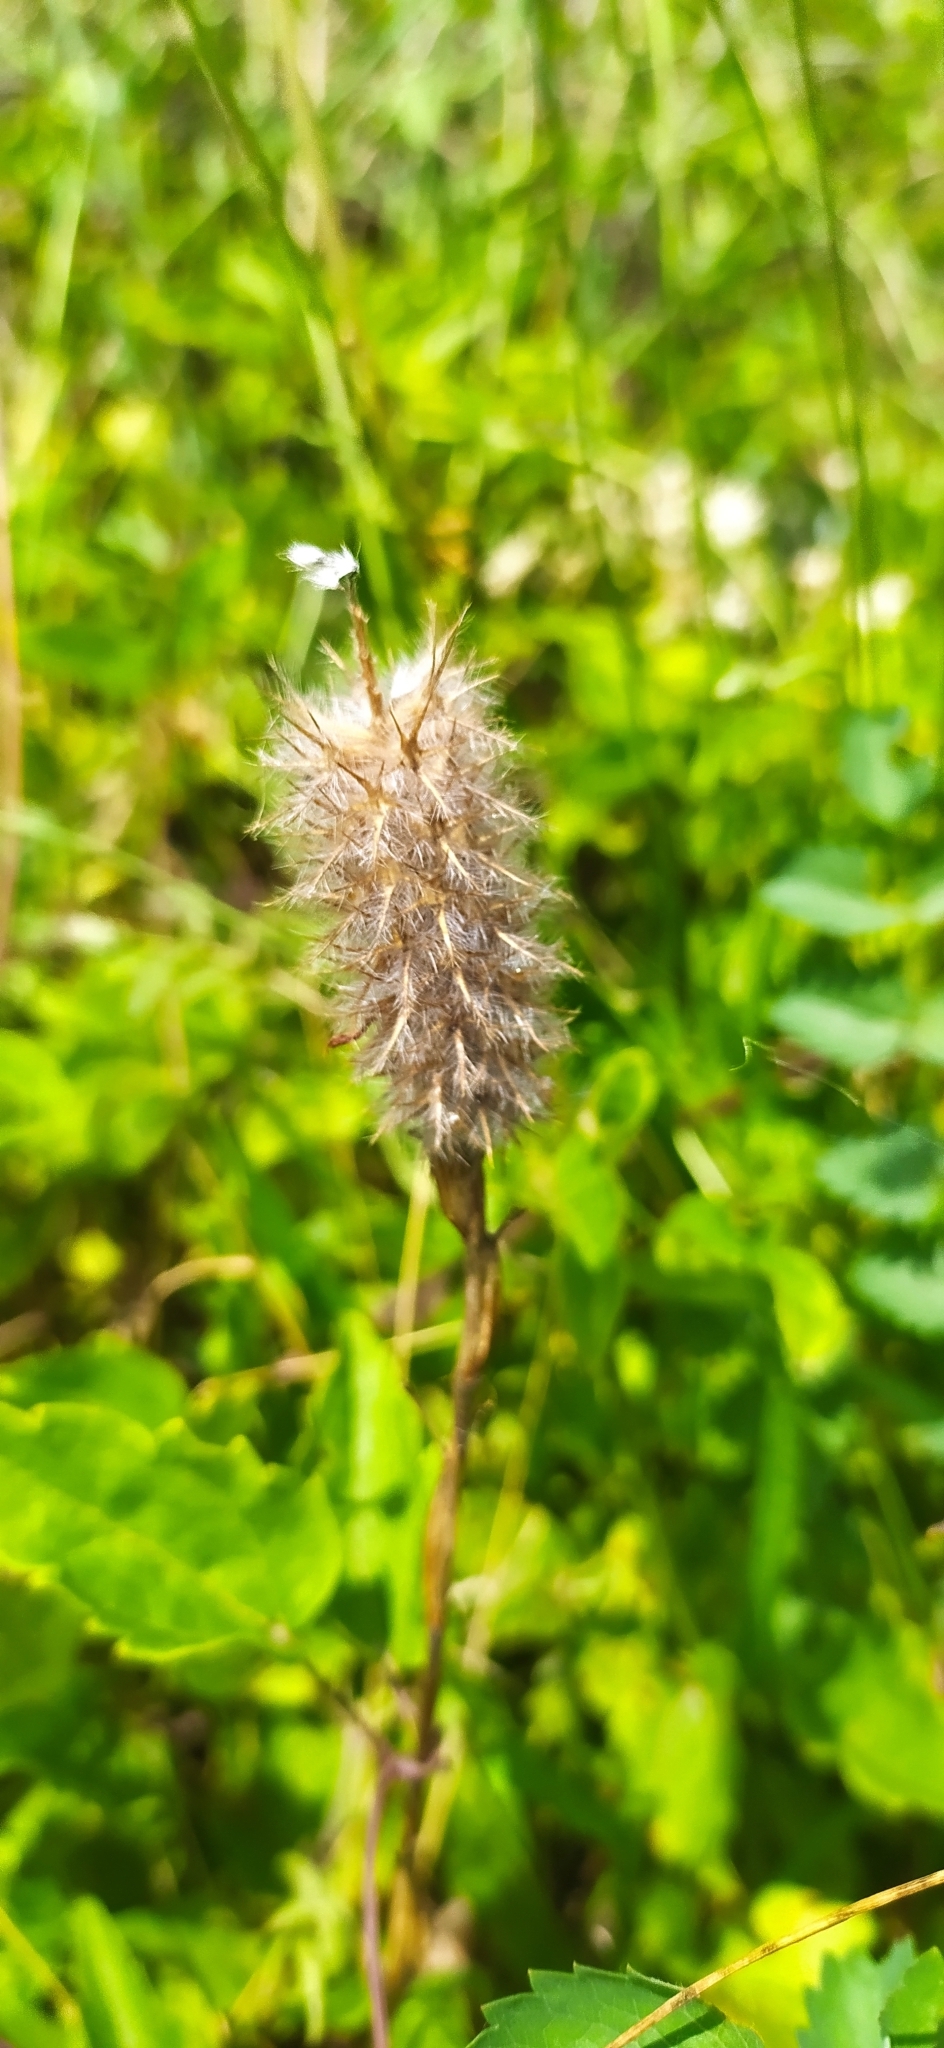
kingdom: Plantae
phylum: Tracheophyta
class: Magnoliopsida
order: Fabales
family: Fabaceae
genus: Trifolium
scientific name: Trifolium angustifolium
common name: Narrow clover
